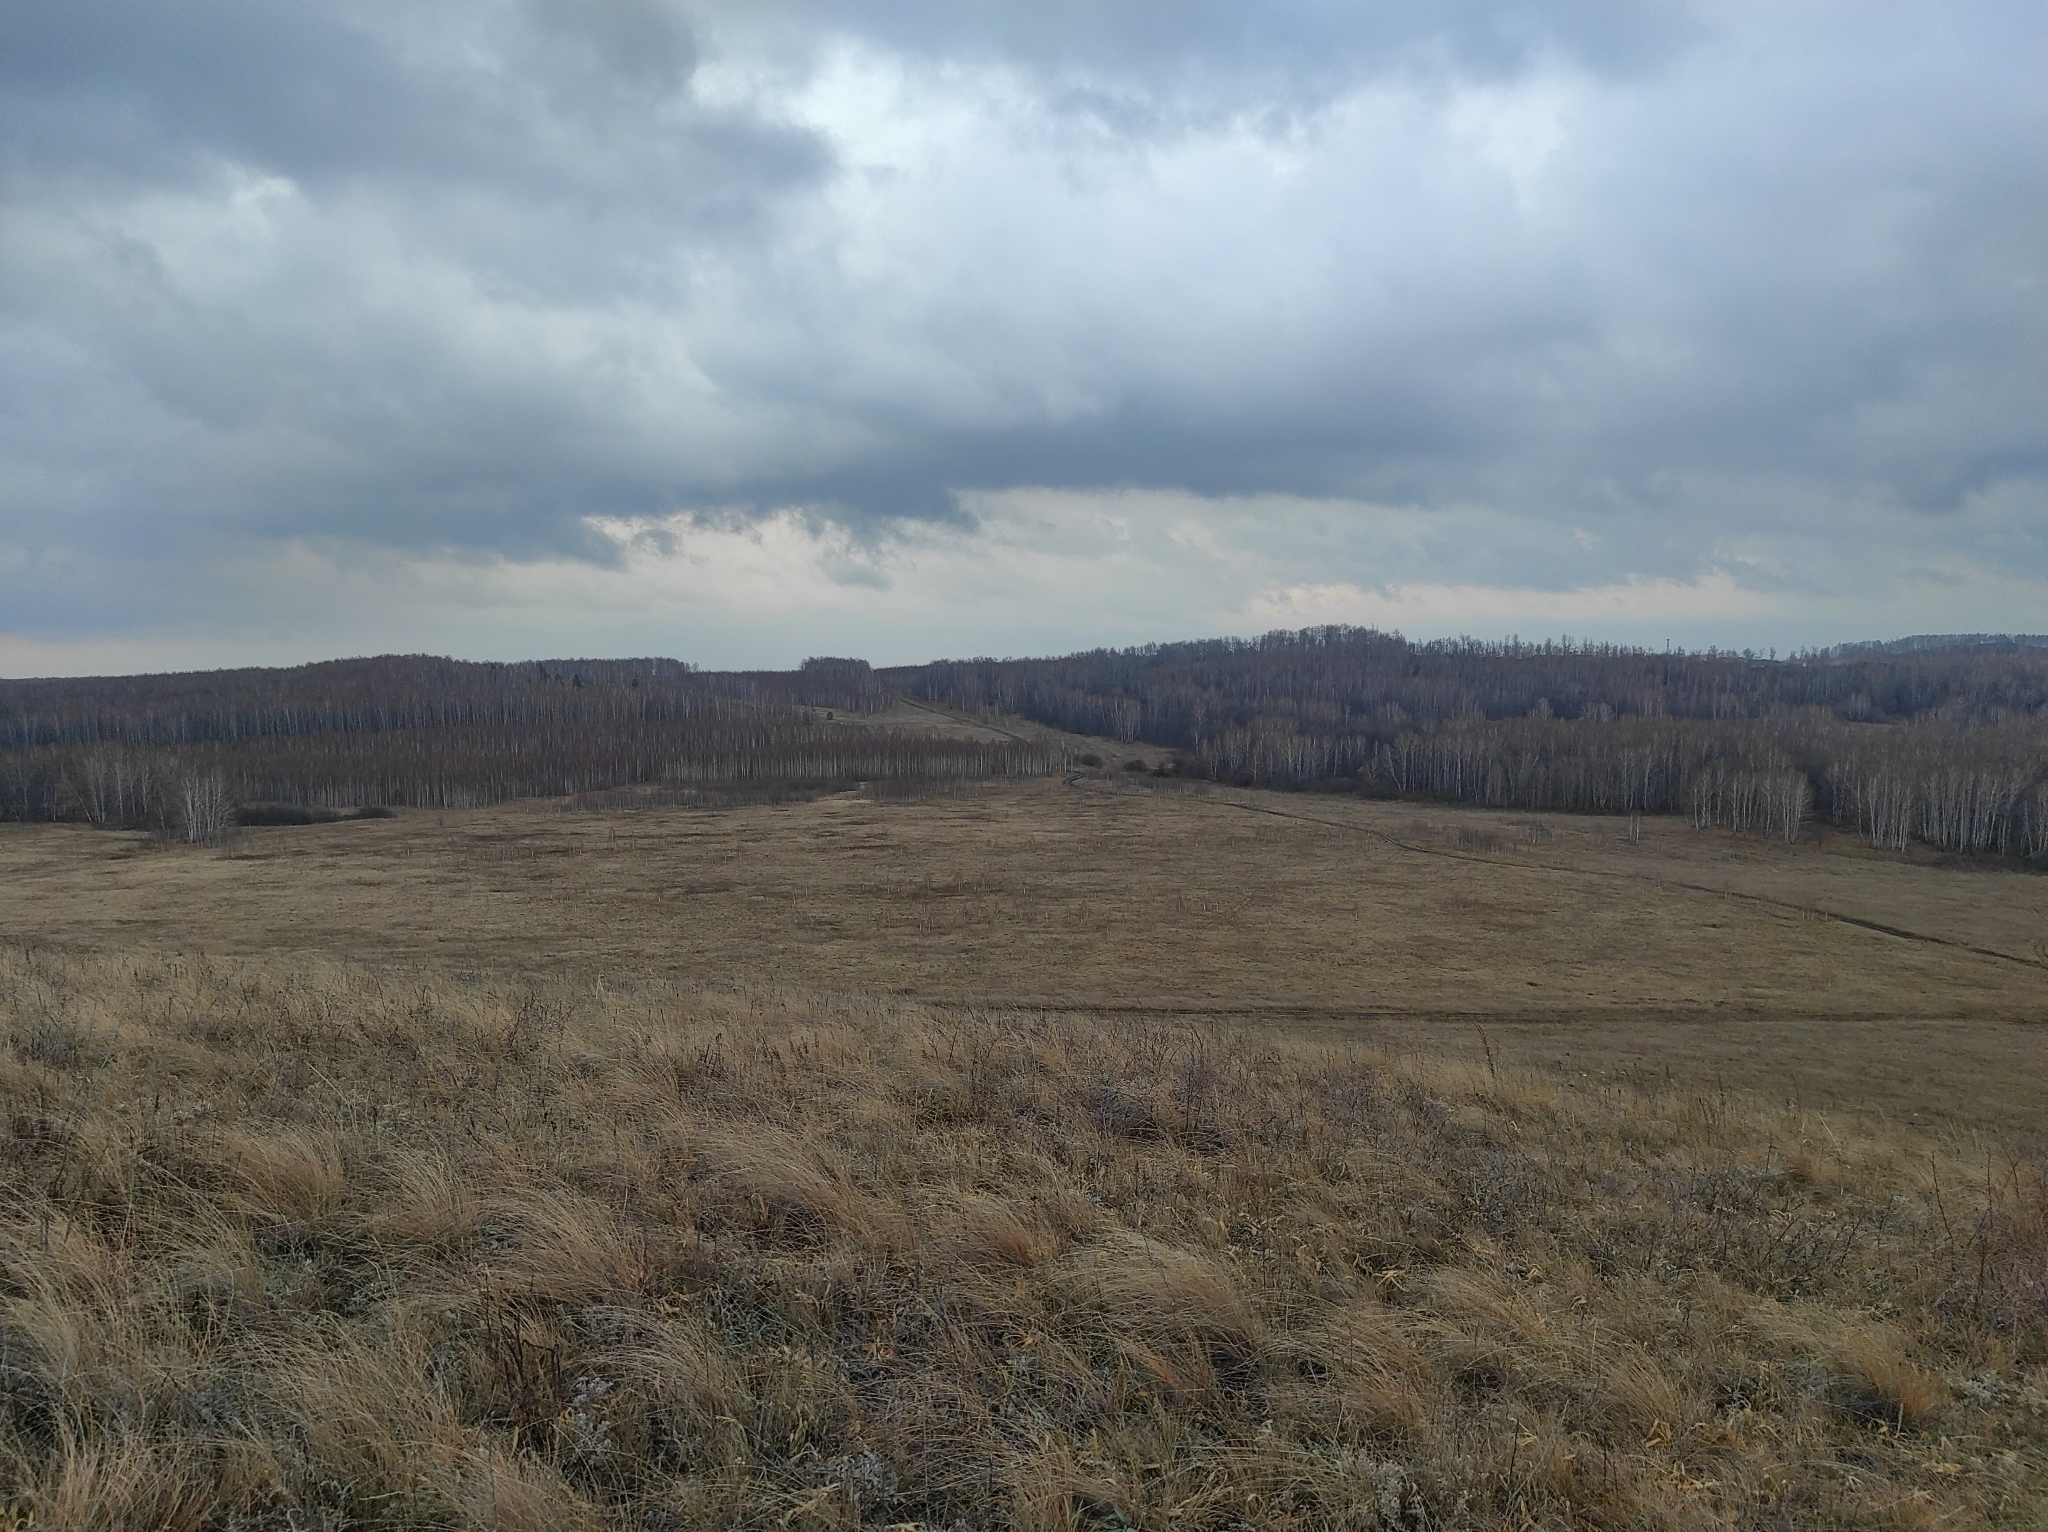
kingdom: Plantae
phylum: Tracheophyta
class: Liliopsida
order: Asparagales
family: Amaryllidaceae
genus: Allium
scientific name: Allium nutans
